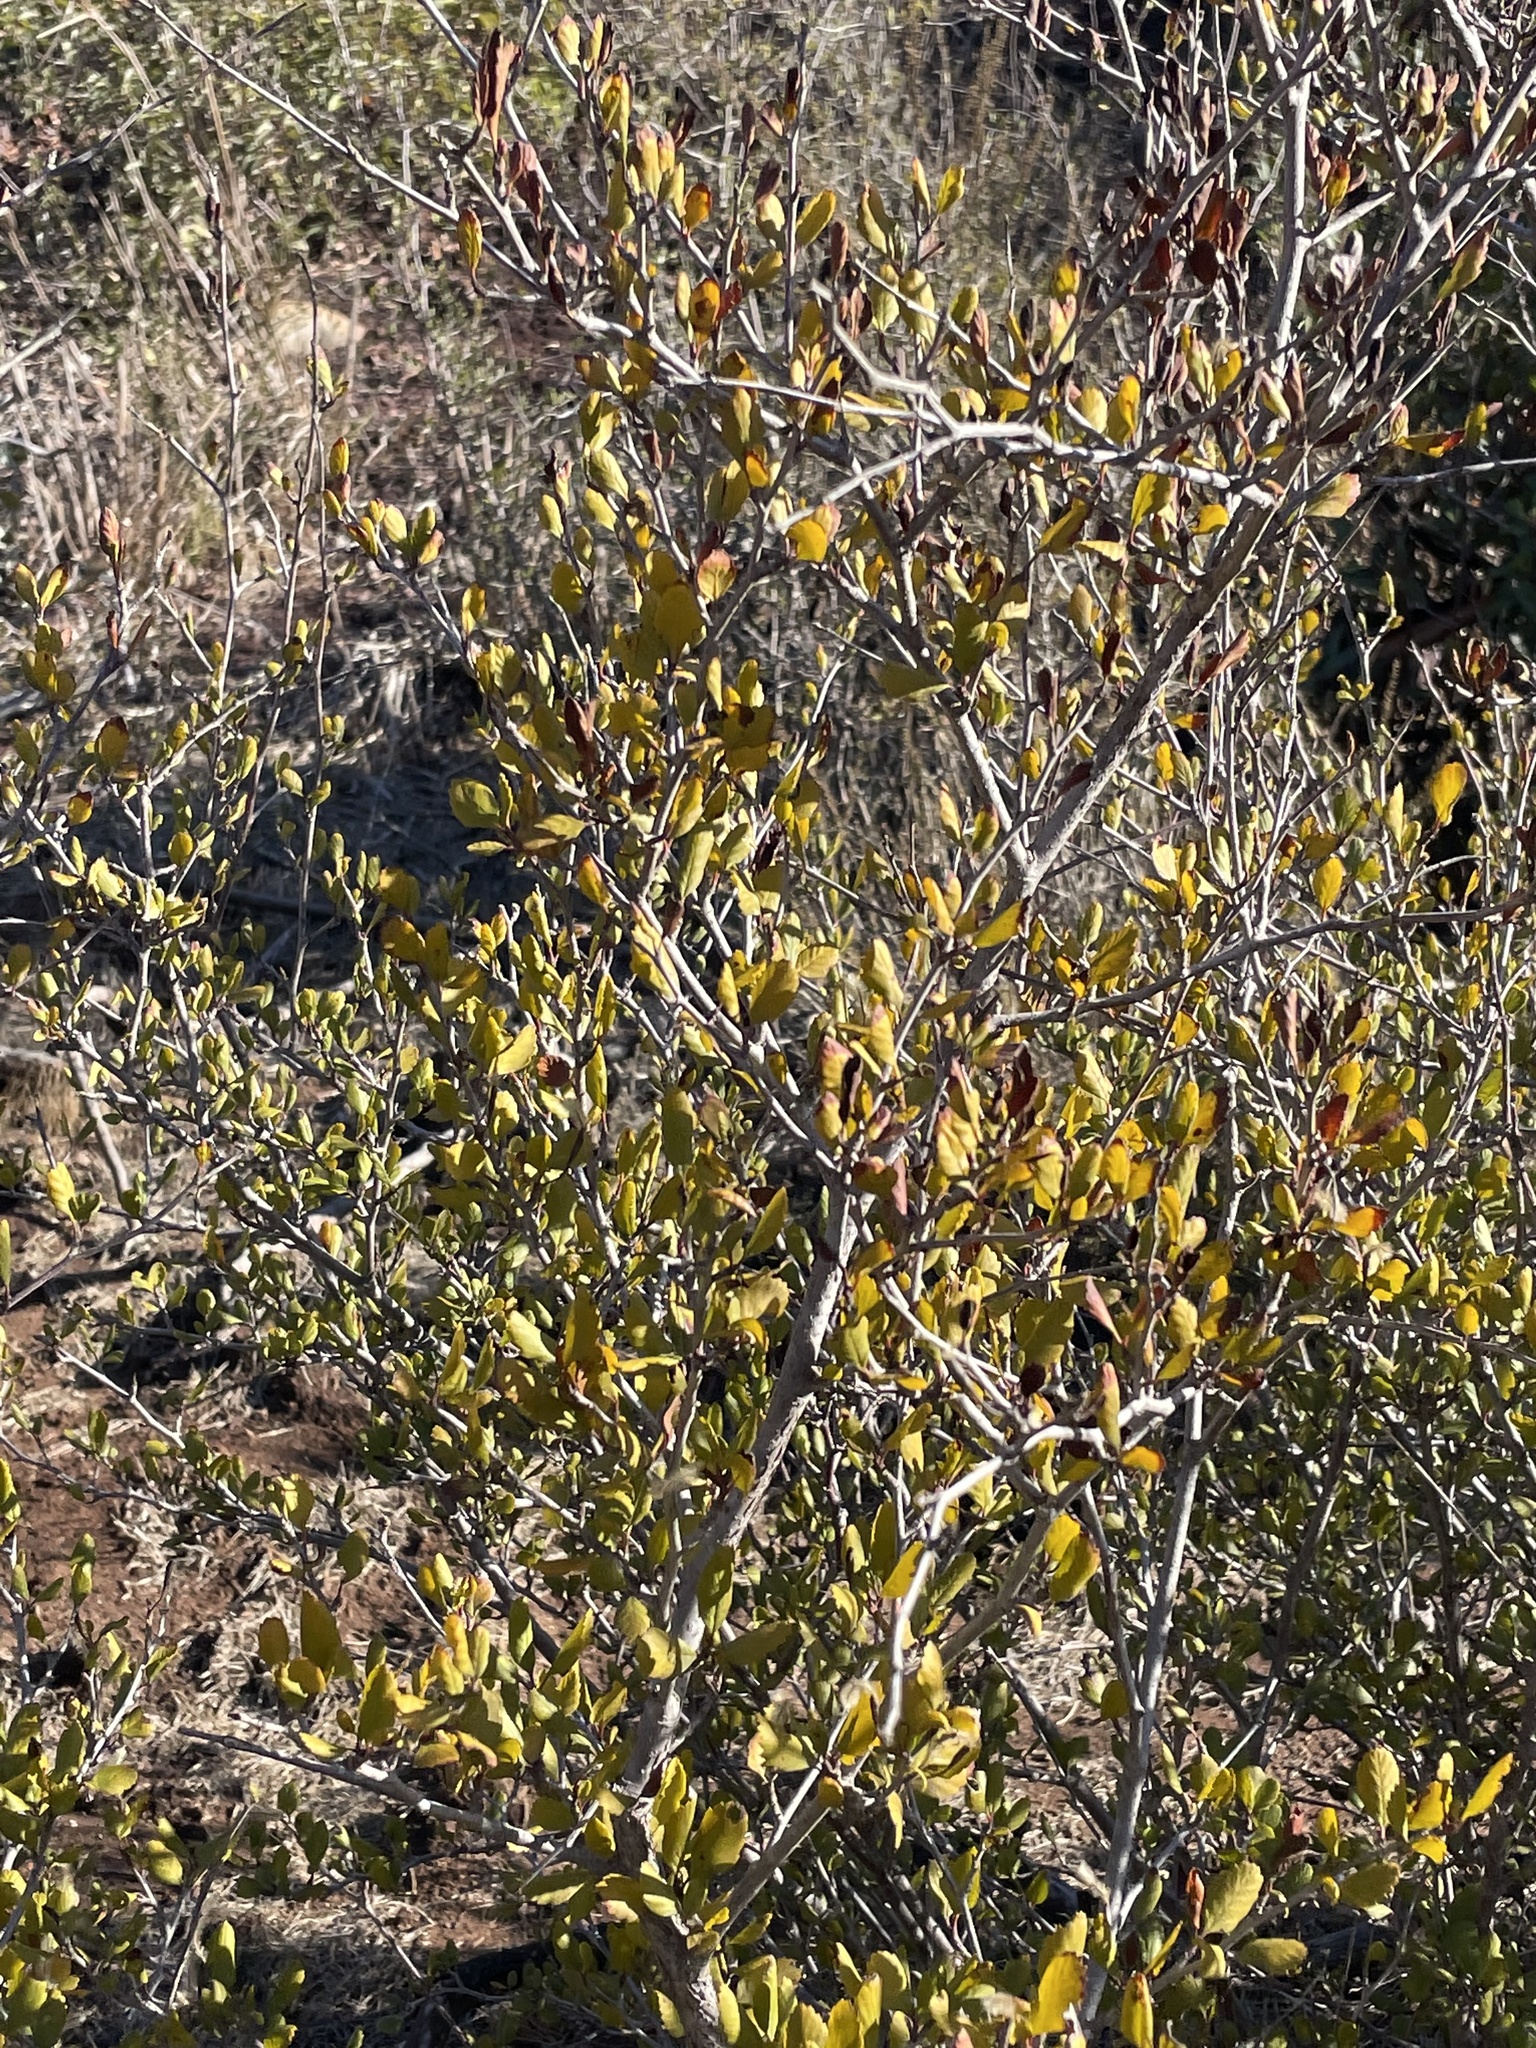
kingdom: Plantae
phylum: Tracheophyta
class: Magnoliopsida
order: Rosales
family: Rosaceae
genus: Cercocarpus
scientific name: Cercocarpus montanus
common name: Alder-leaf cercocarpus
